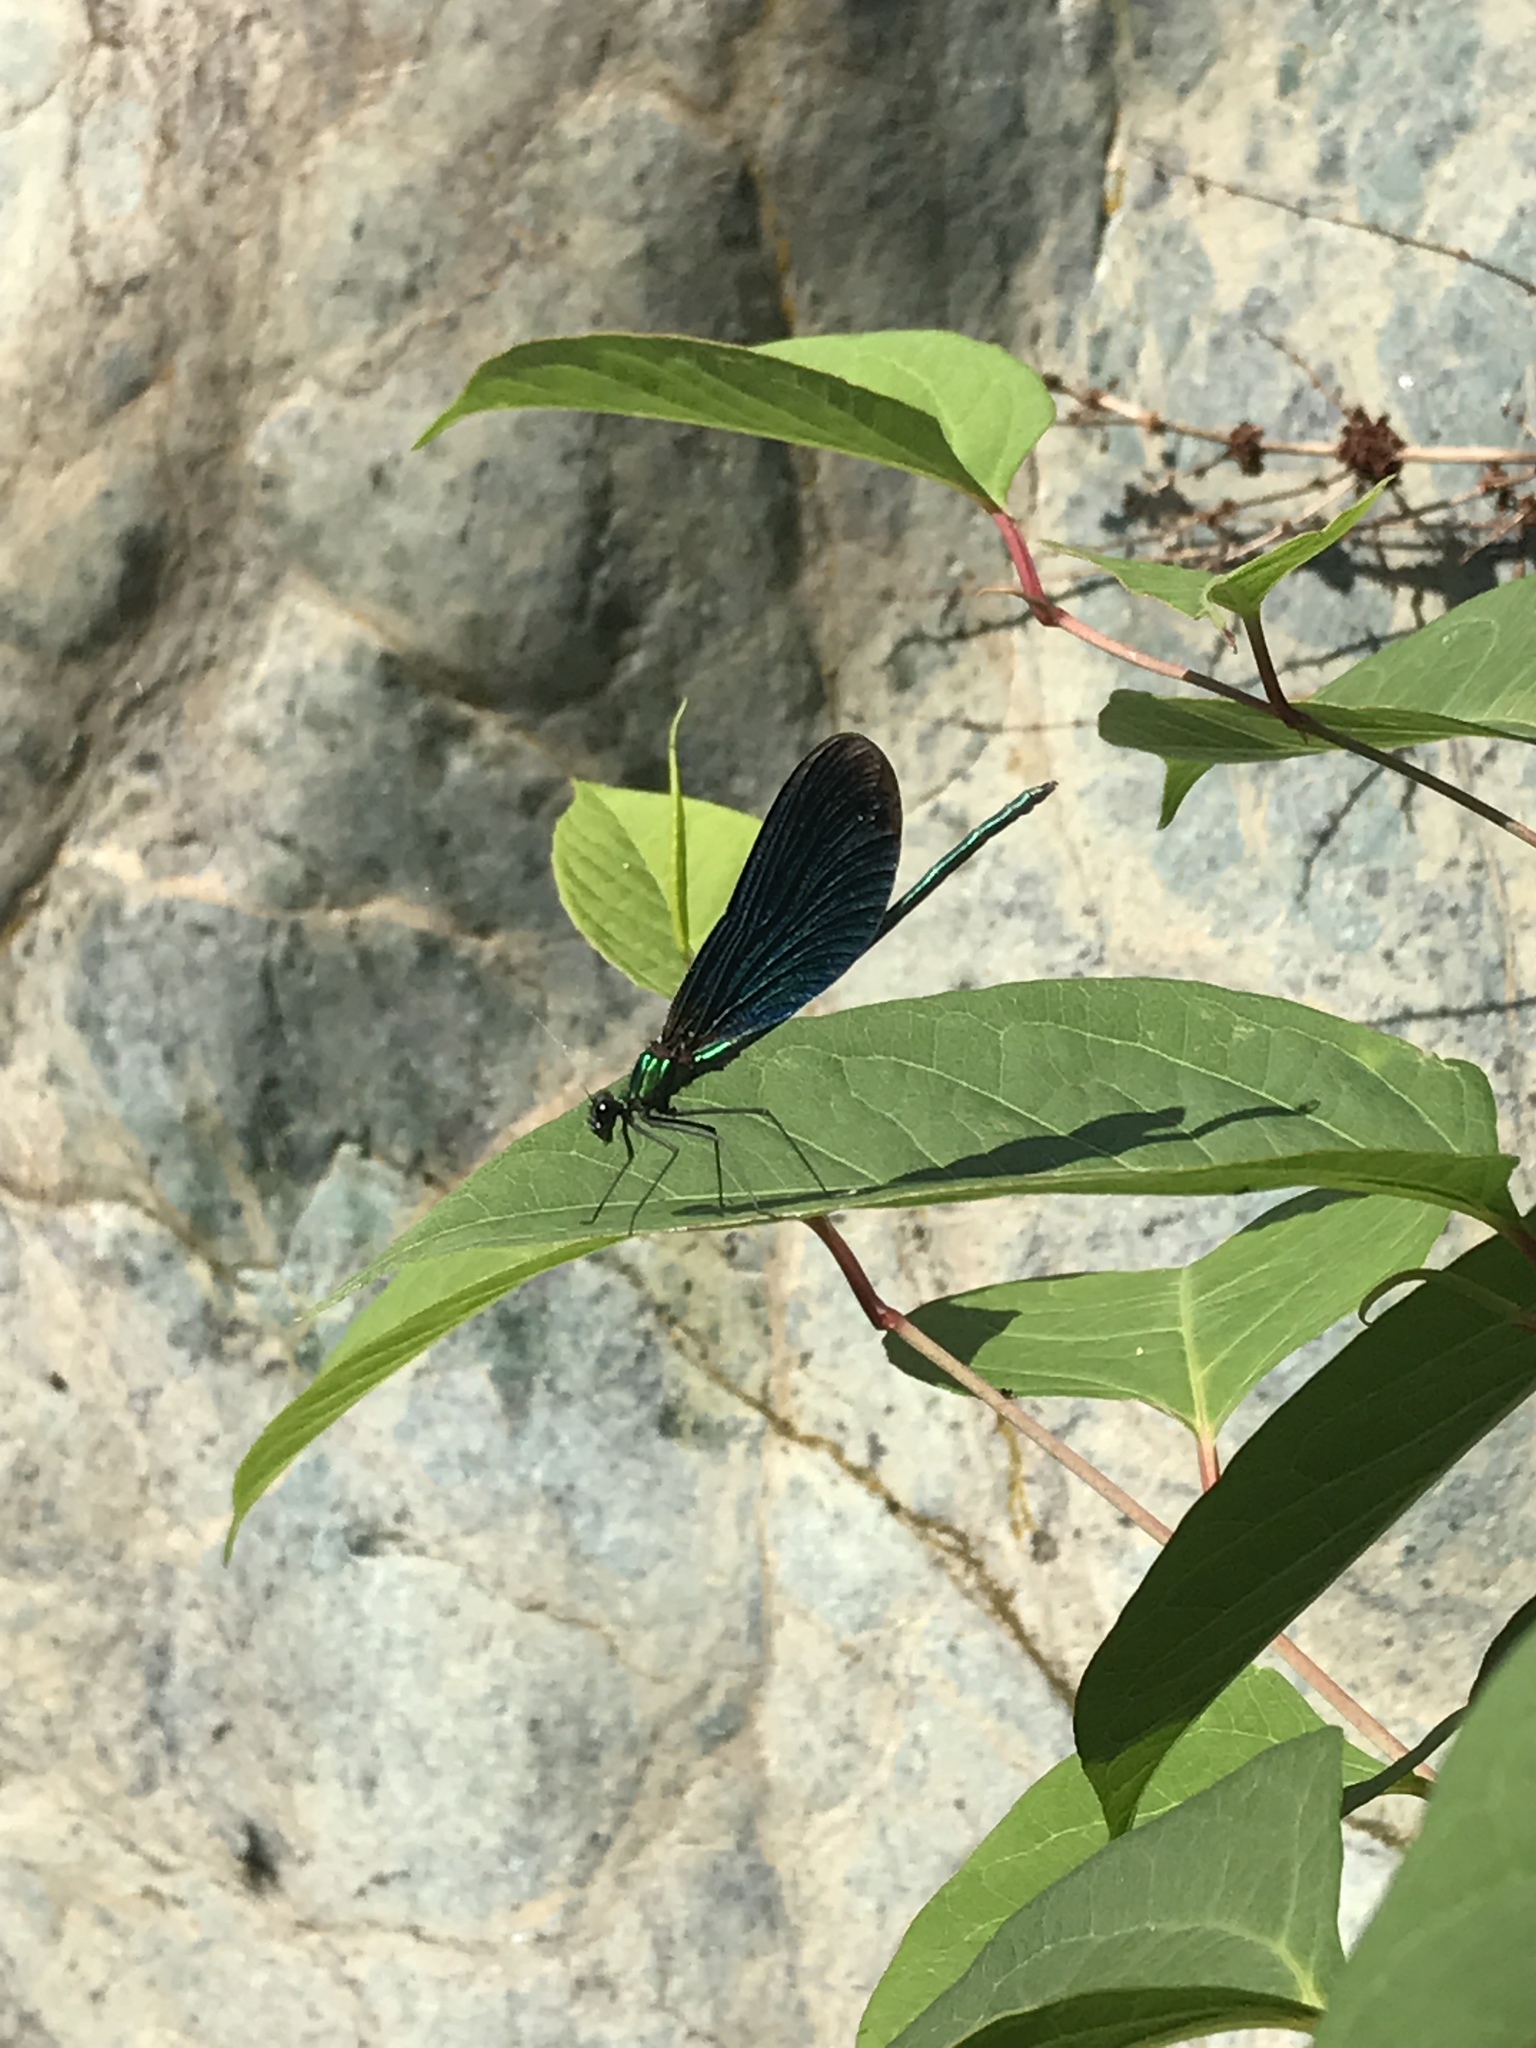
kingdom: Animalia
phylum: Arthropoda
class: Insecta
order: Odonata
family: Calopterygidae
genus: Calopteryx
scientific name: Calopteryx virgo
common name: Beautiful demoiselle
